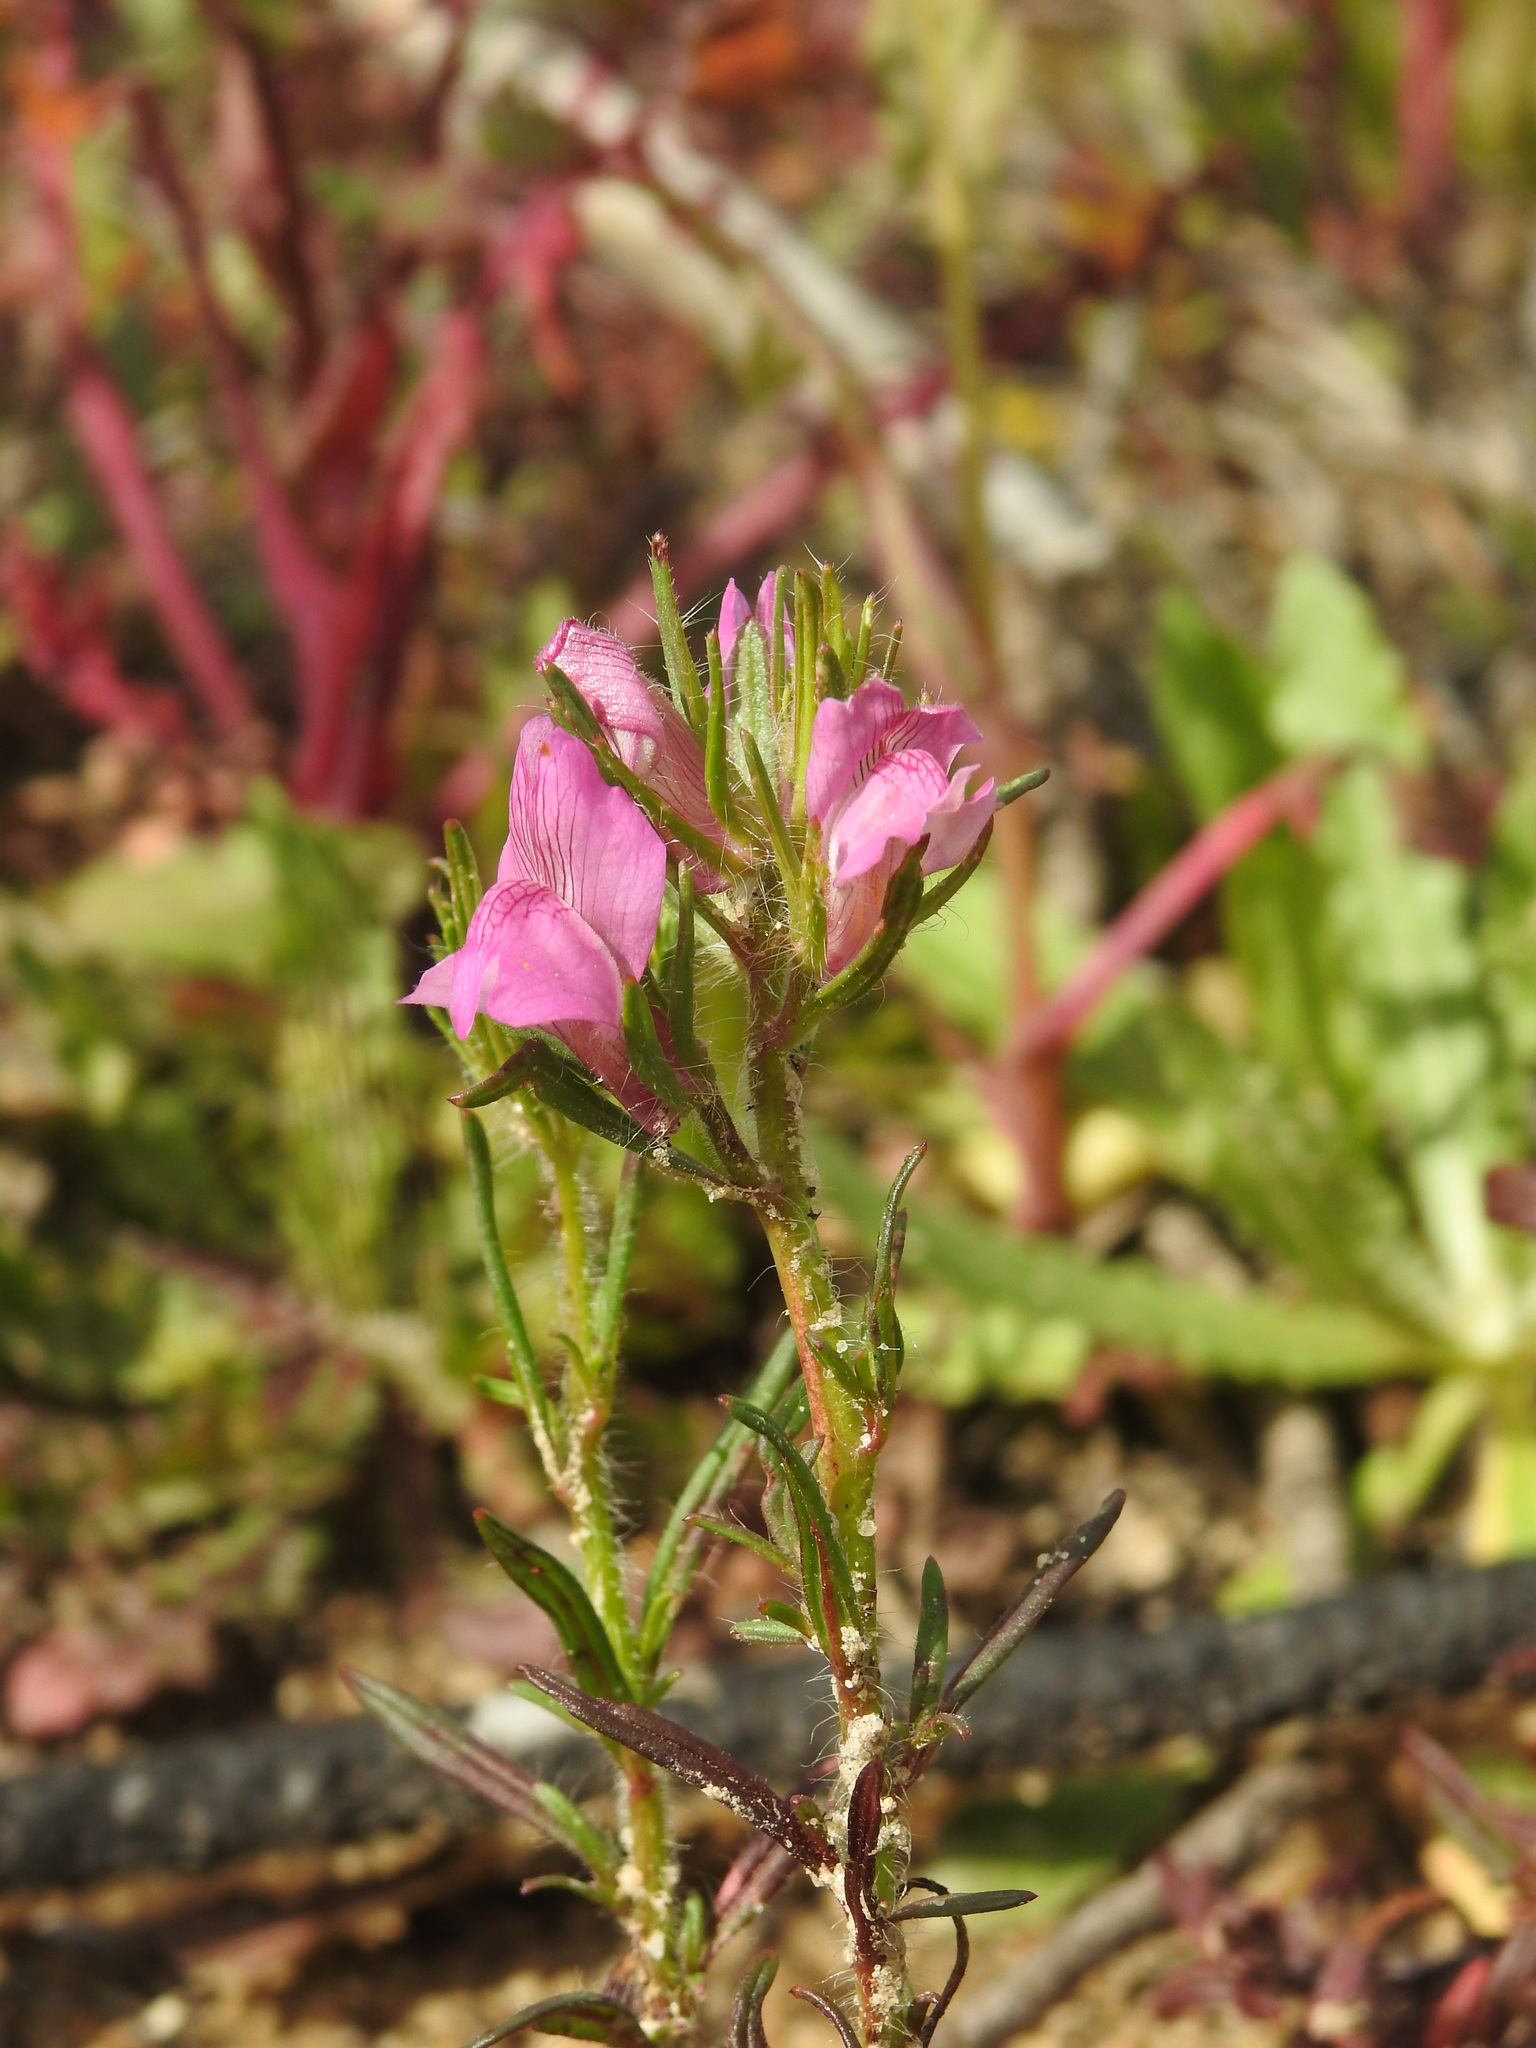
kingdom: Plantae
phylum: Tracheophyta
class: Magnoliopsida
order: Lamiales
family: Plantaginaceae
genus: Misopates
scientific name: Misopates orontium
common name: Weasel's-snout
